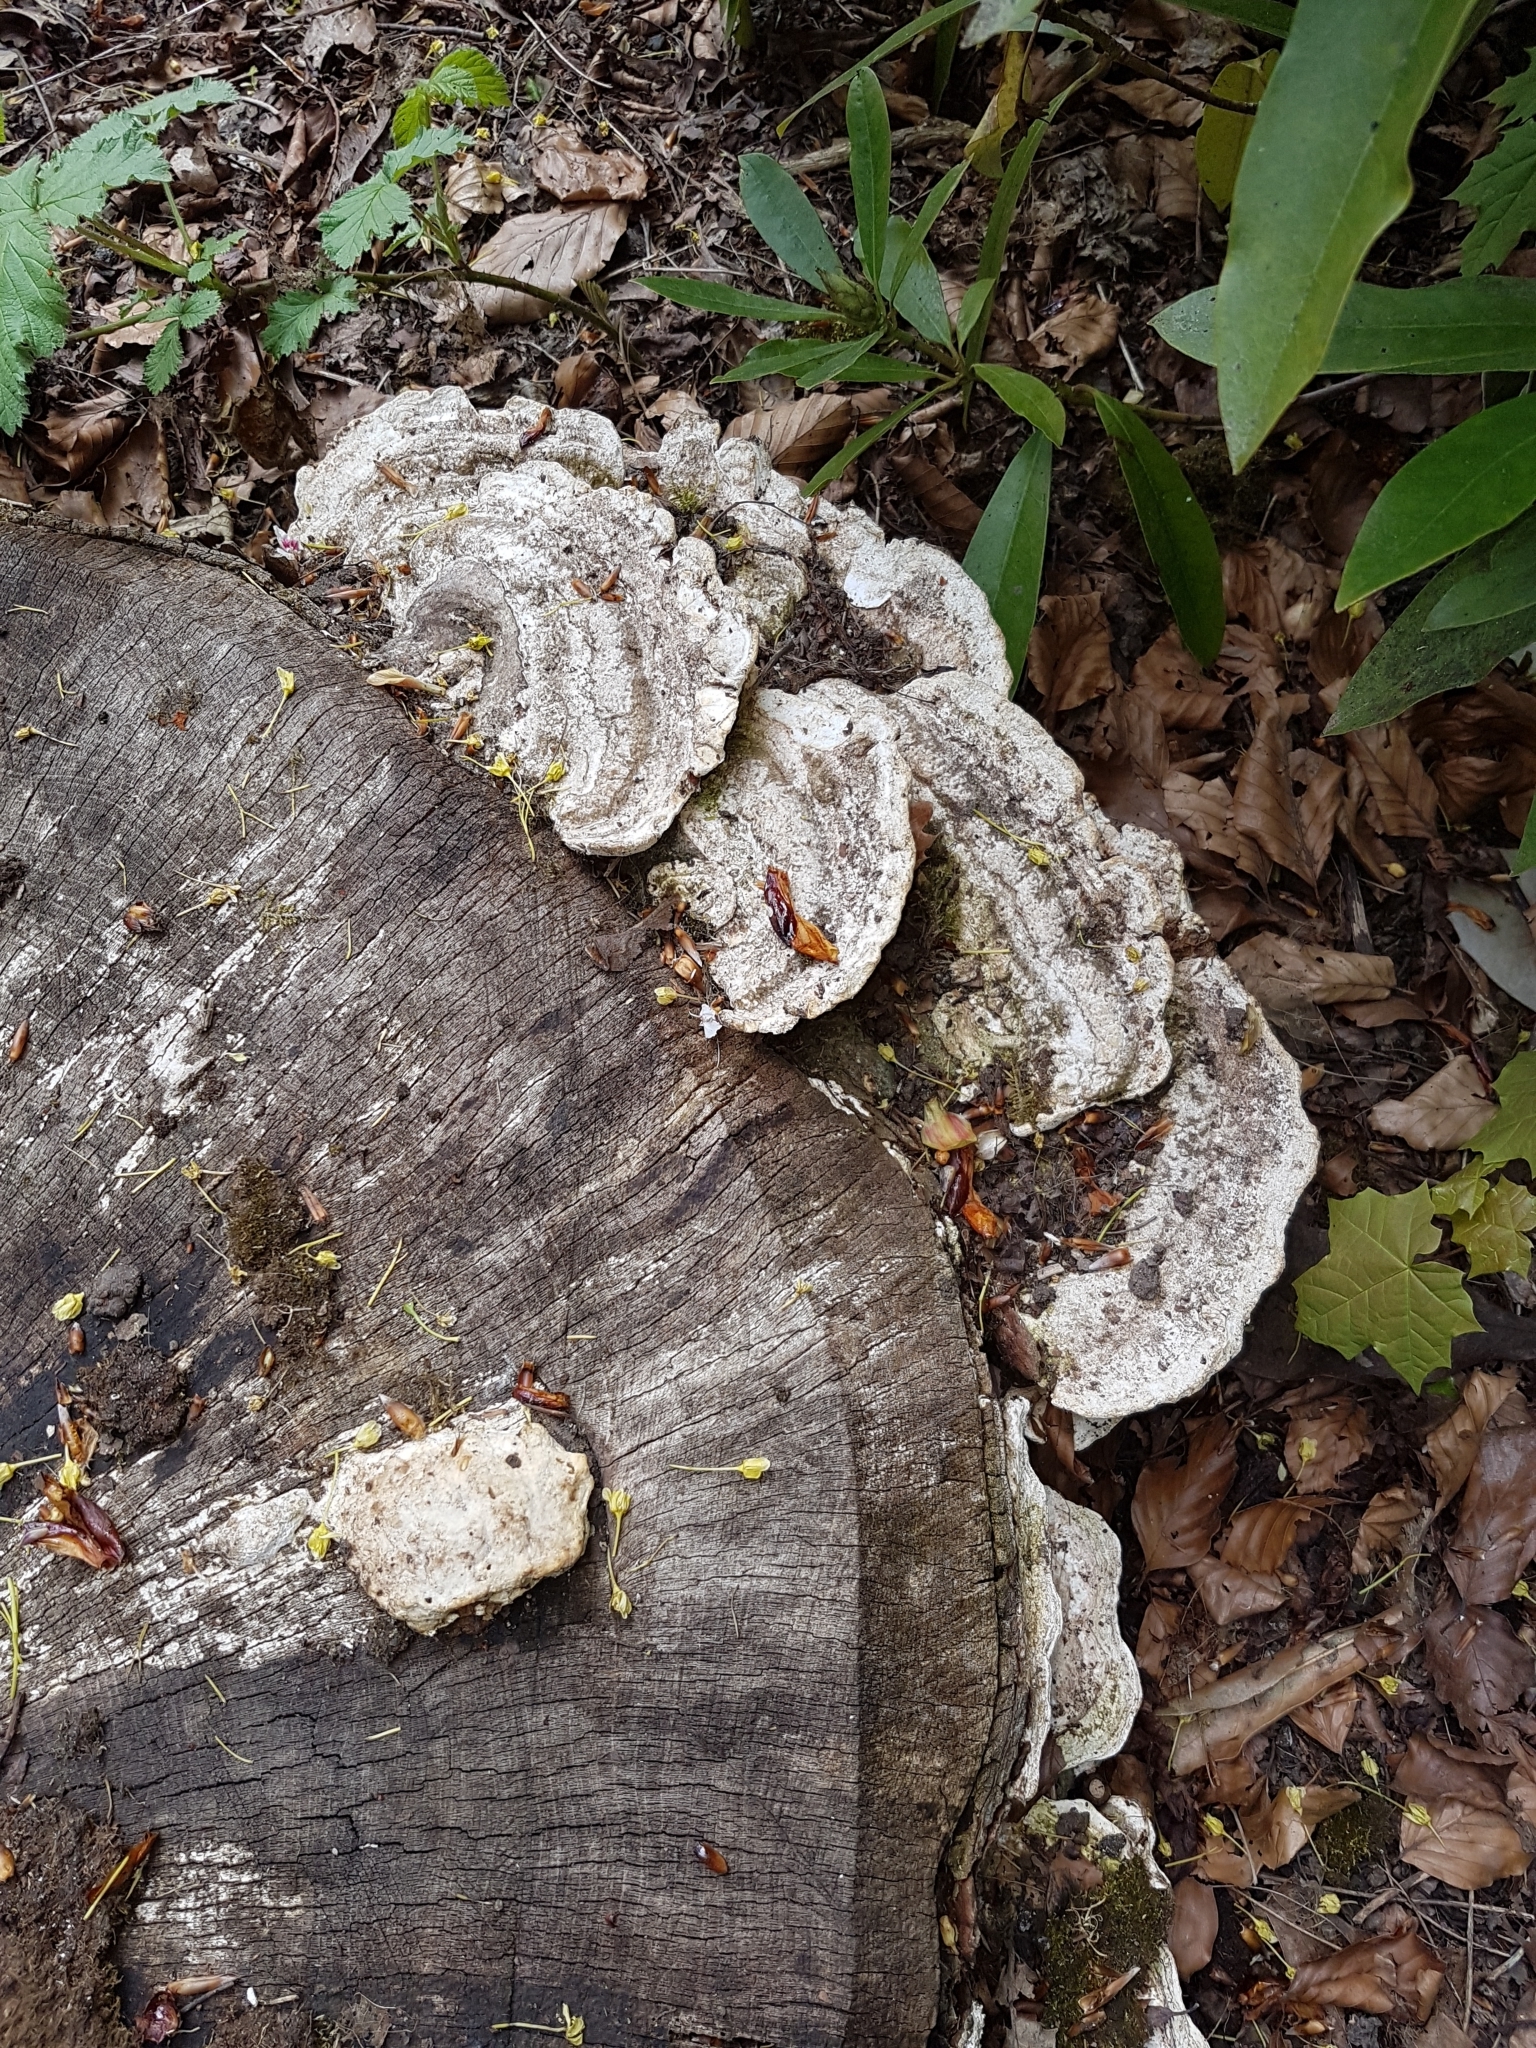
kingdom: Fungi
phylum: Basidiomycota
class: Agaricomycetes
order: Polyporales
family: Polyporaceae
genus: Trametes
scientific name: Trametes gibbosa
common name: Lumpy bracket
